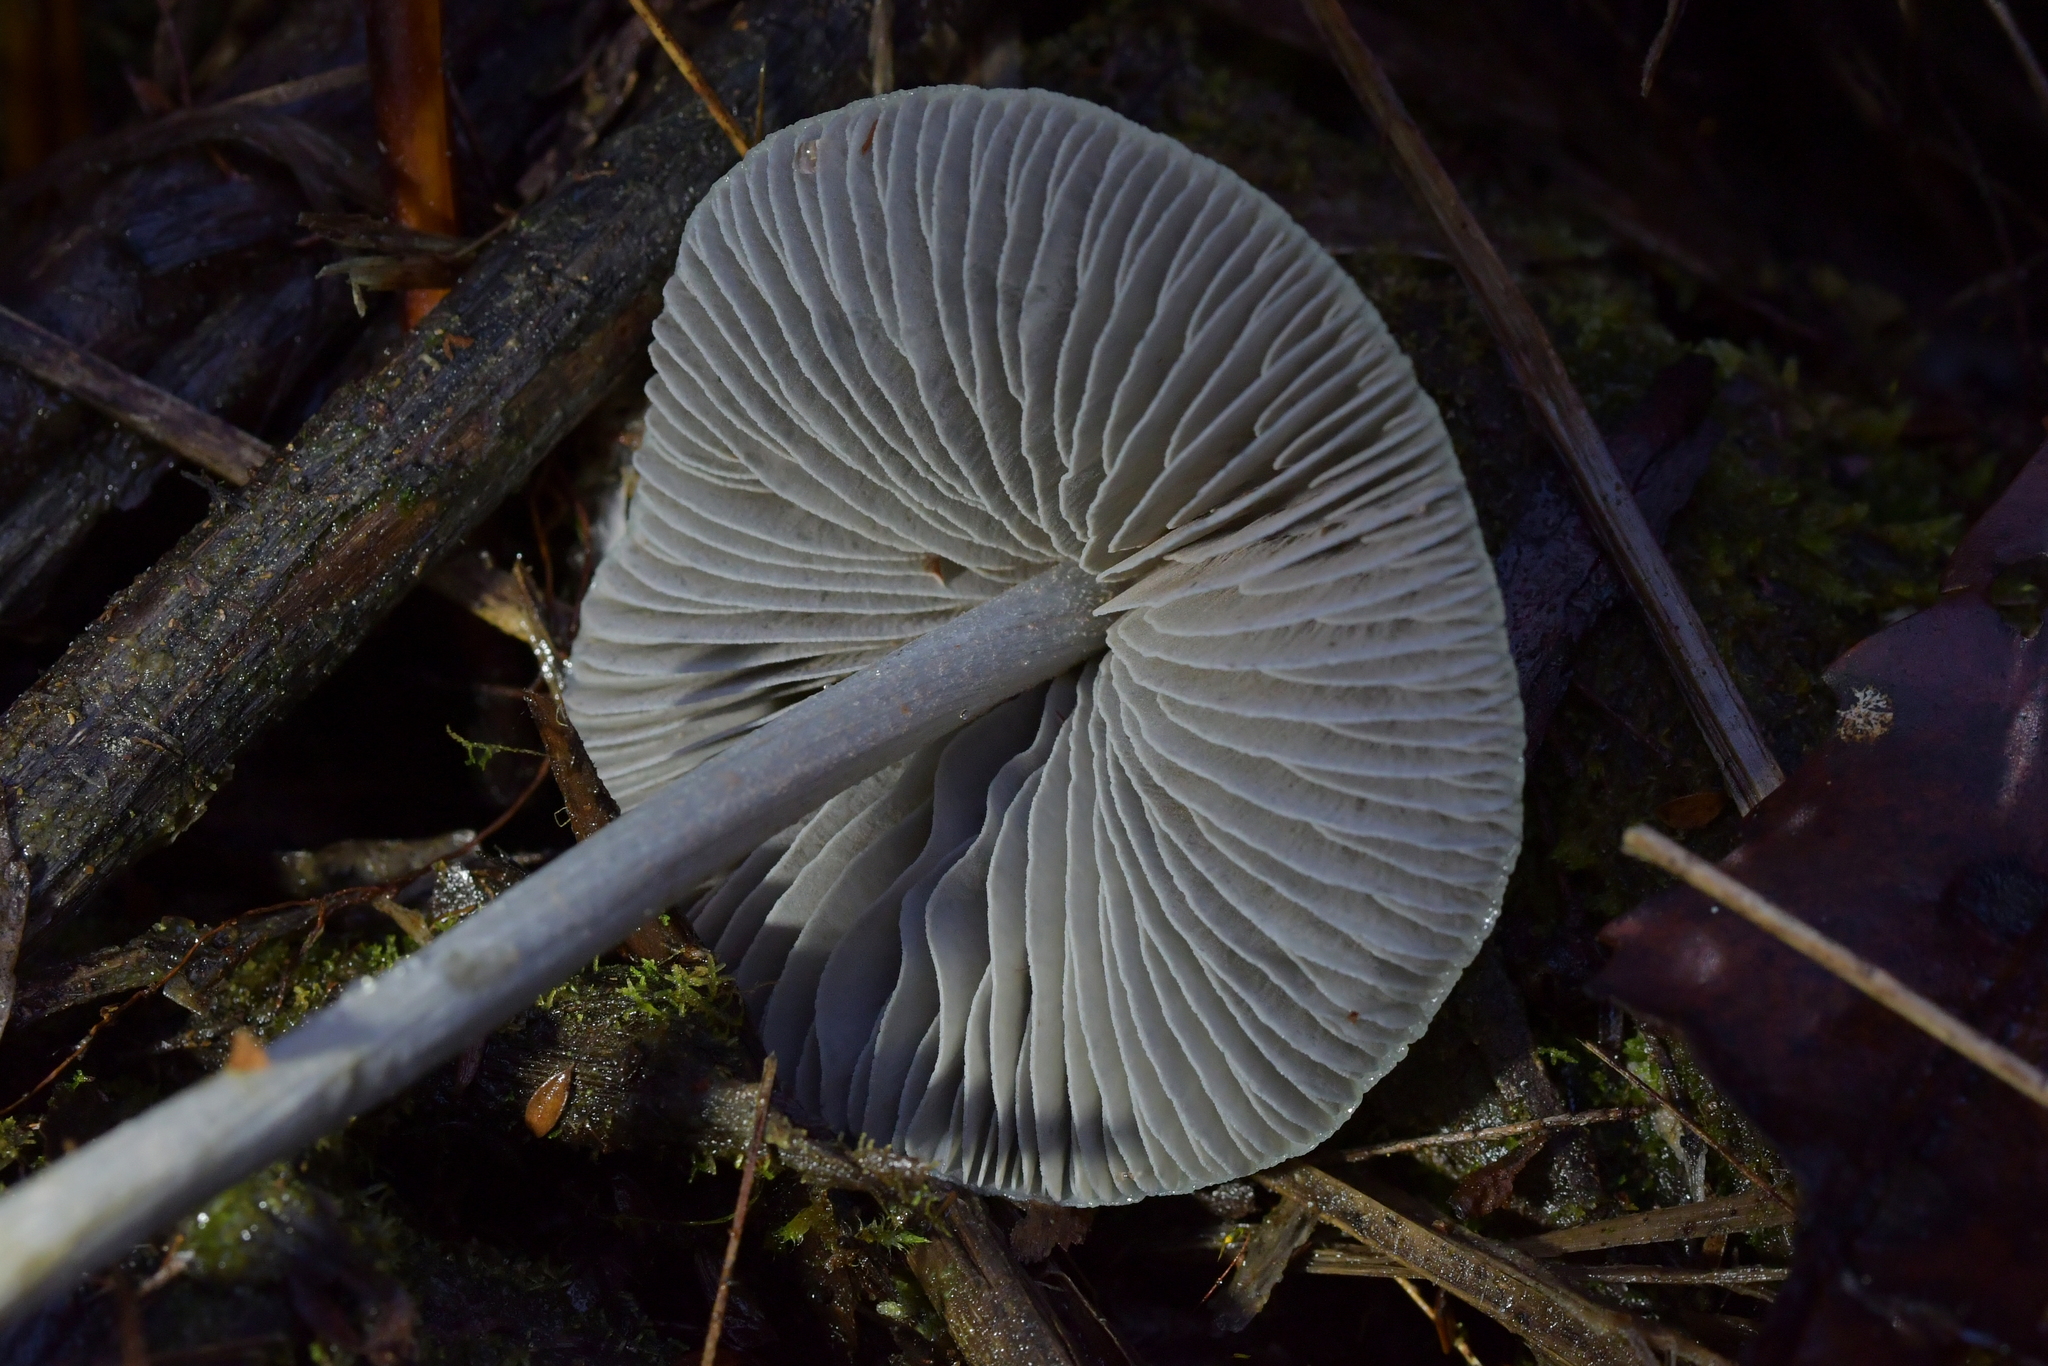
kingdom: Fungi
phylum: Basidiomycota
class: Agaricomycetes
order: Agaricales
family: Entolomataceae
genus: Entoloma
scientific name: Entoloma canoconicum
